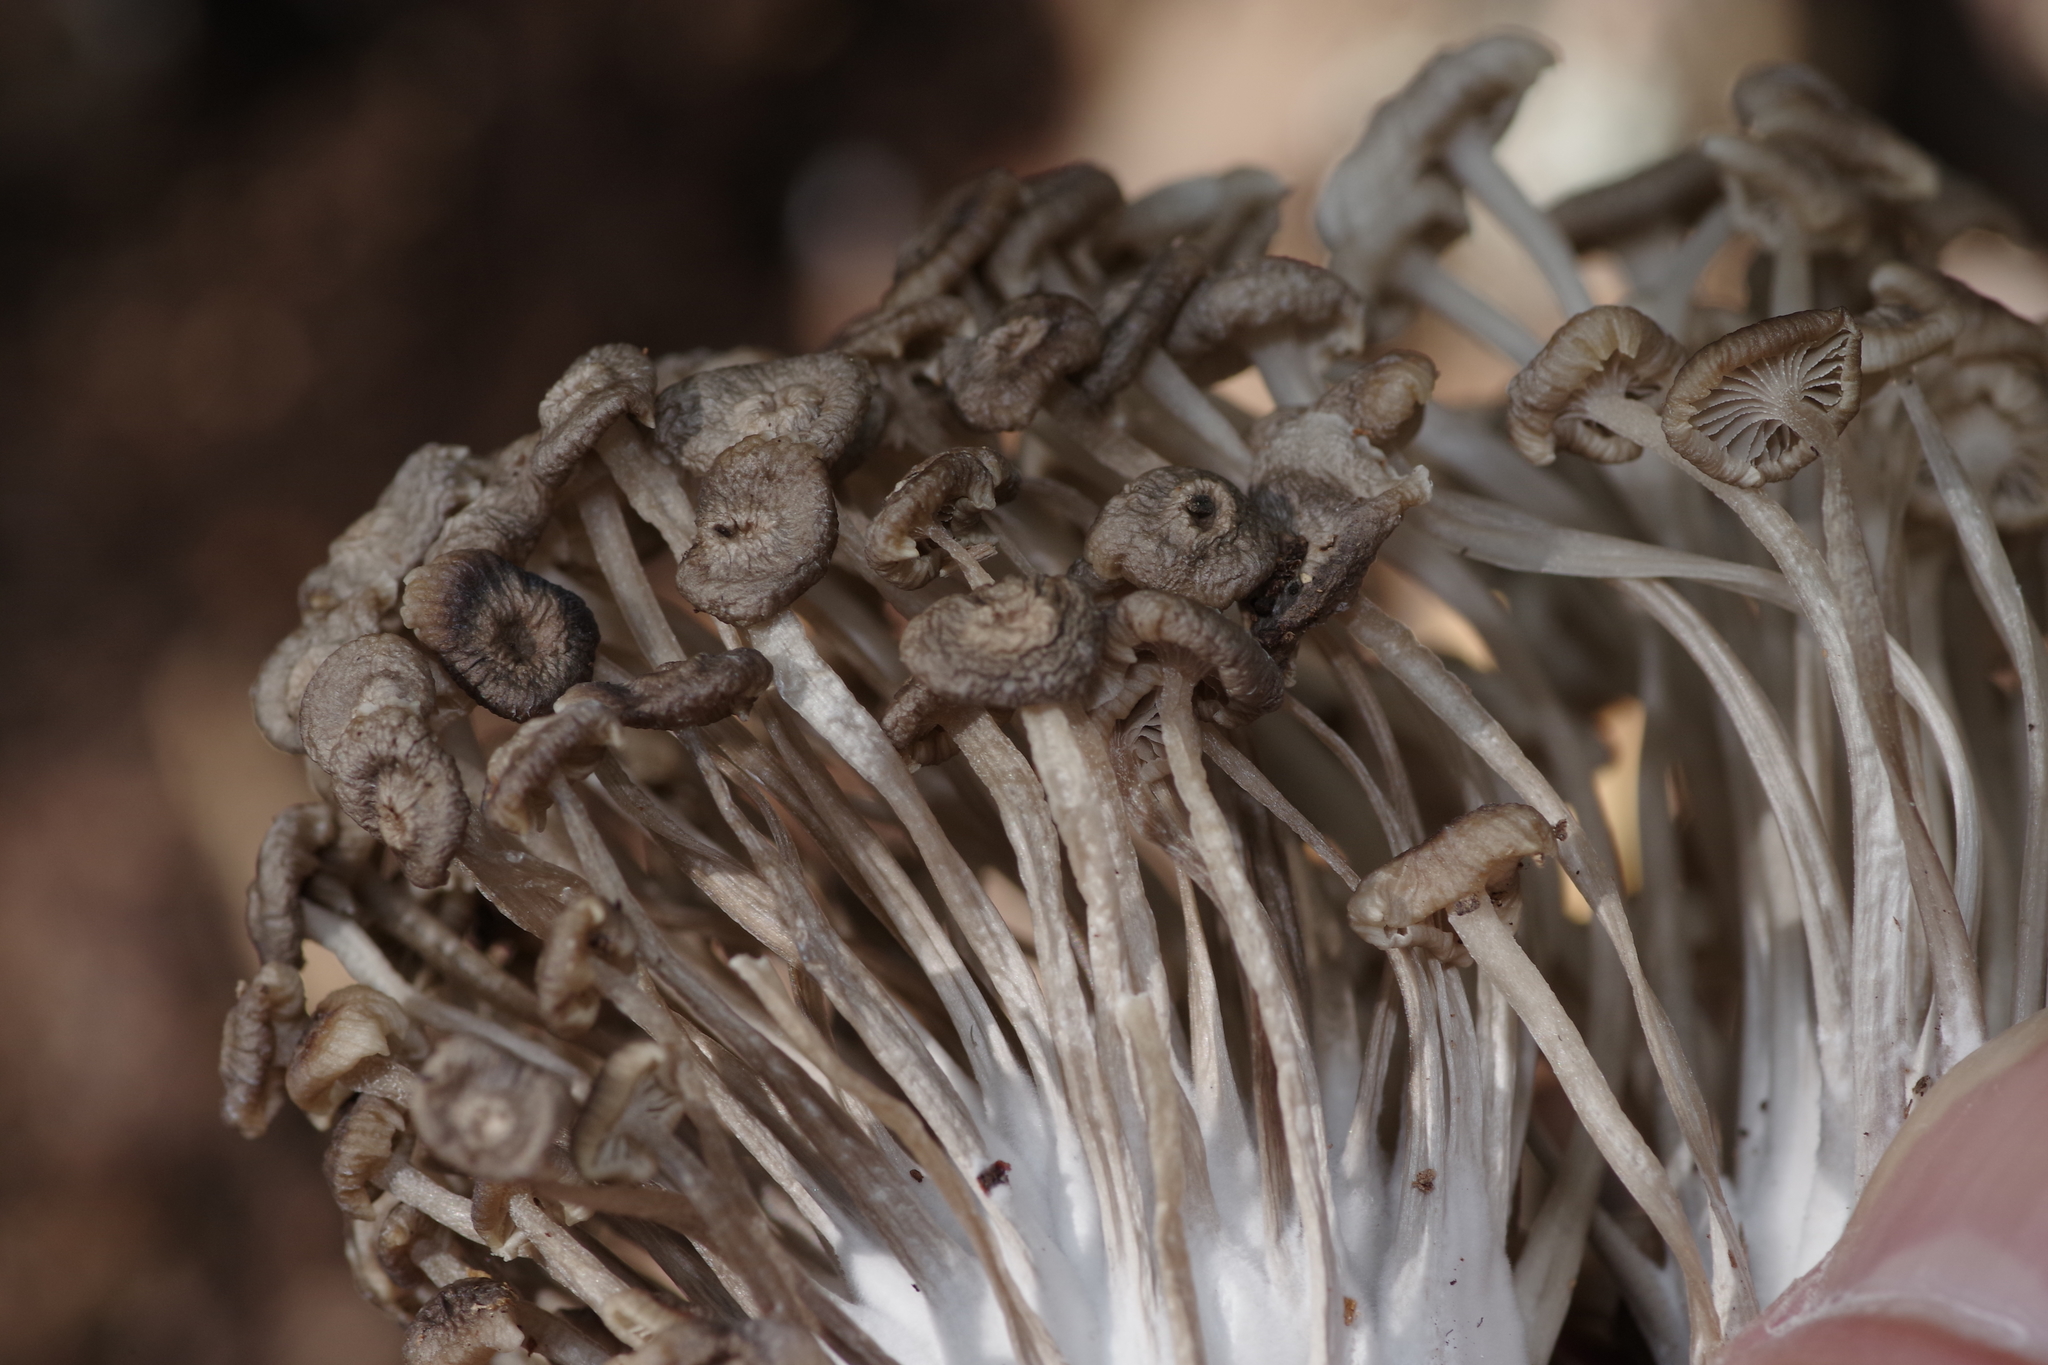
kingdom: Fungi
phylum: Basidiomycota
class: Agaricomycetes
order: Agaricales
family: Marasmiaceae
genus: Clitocybula
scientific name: Clitocybula abundans
